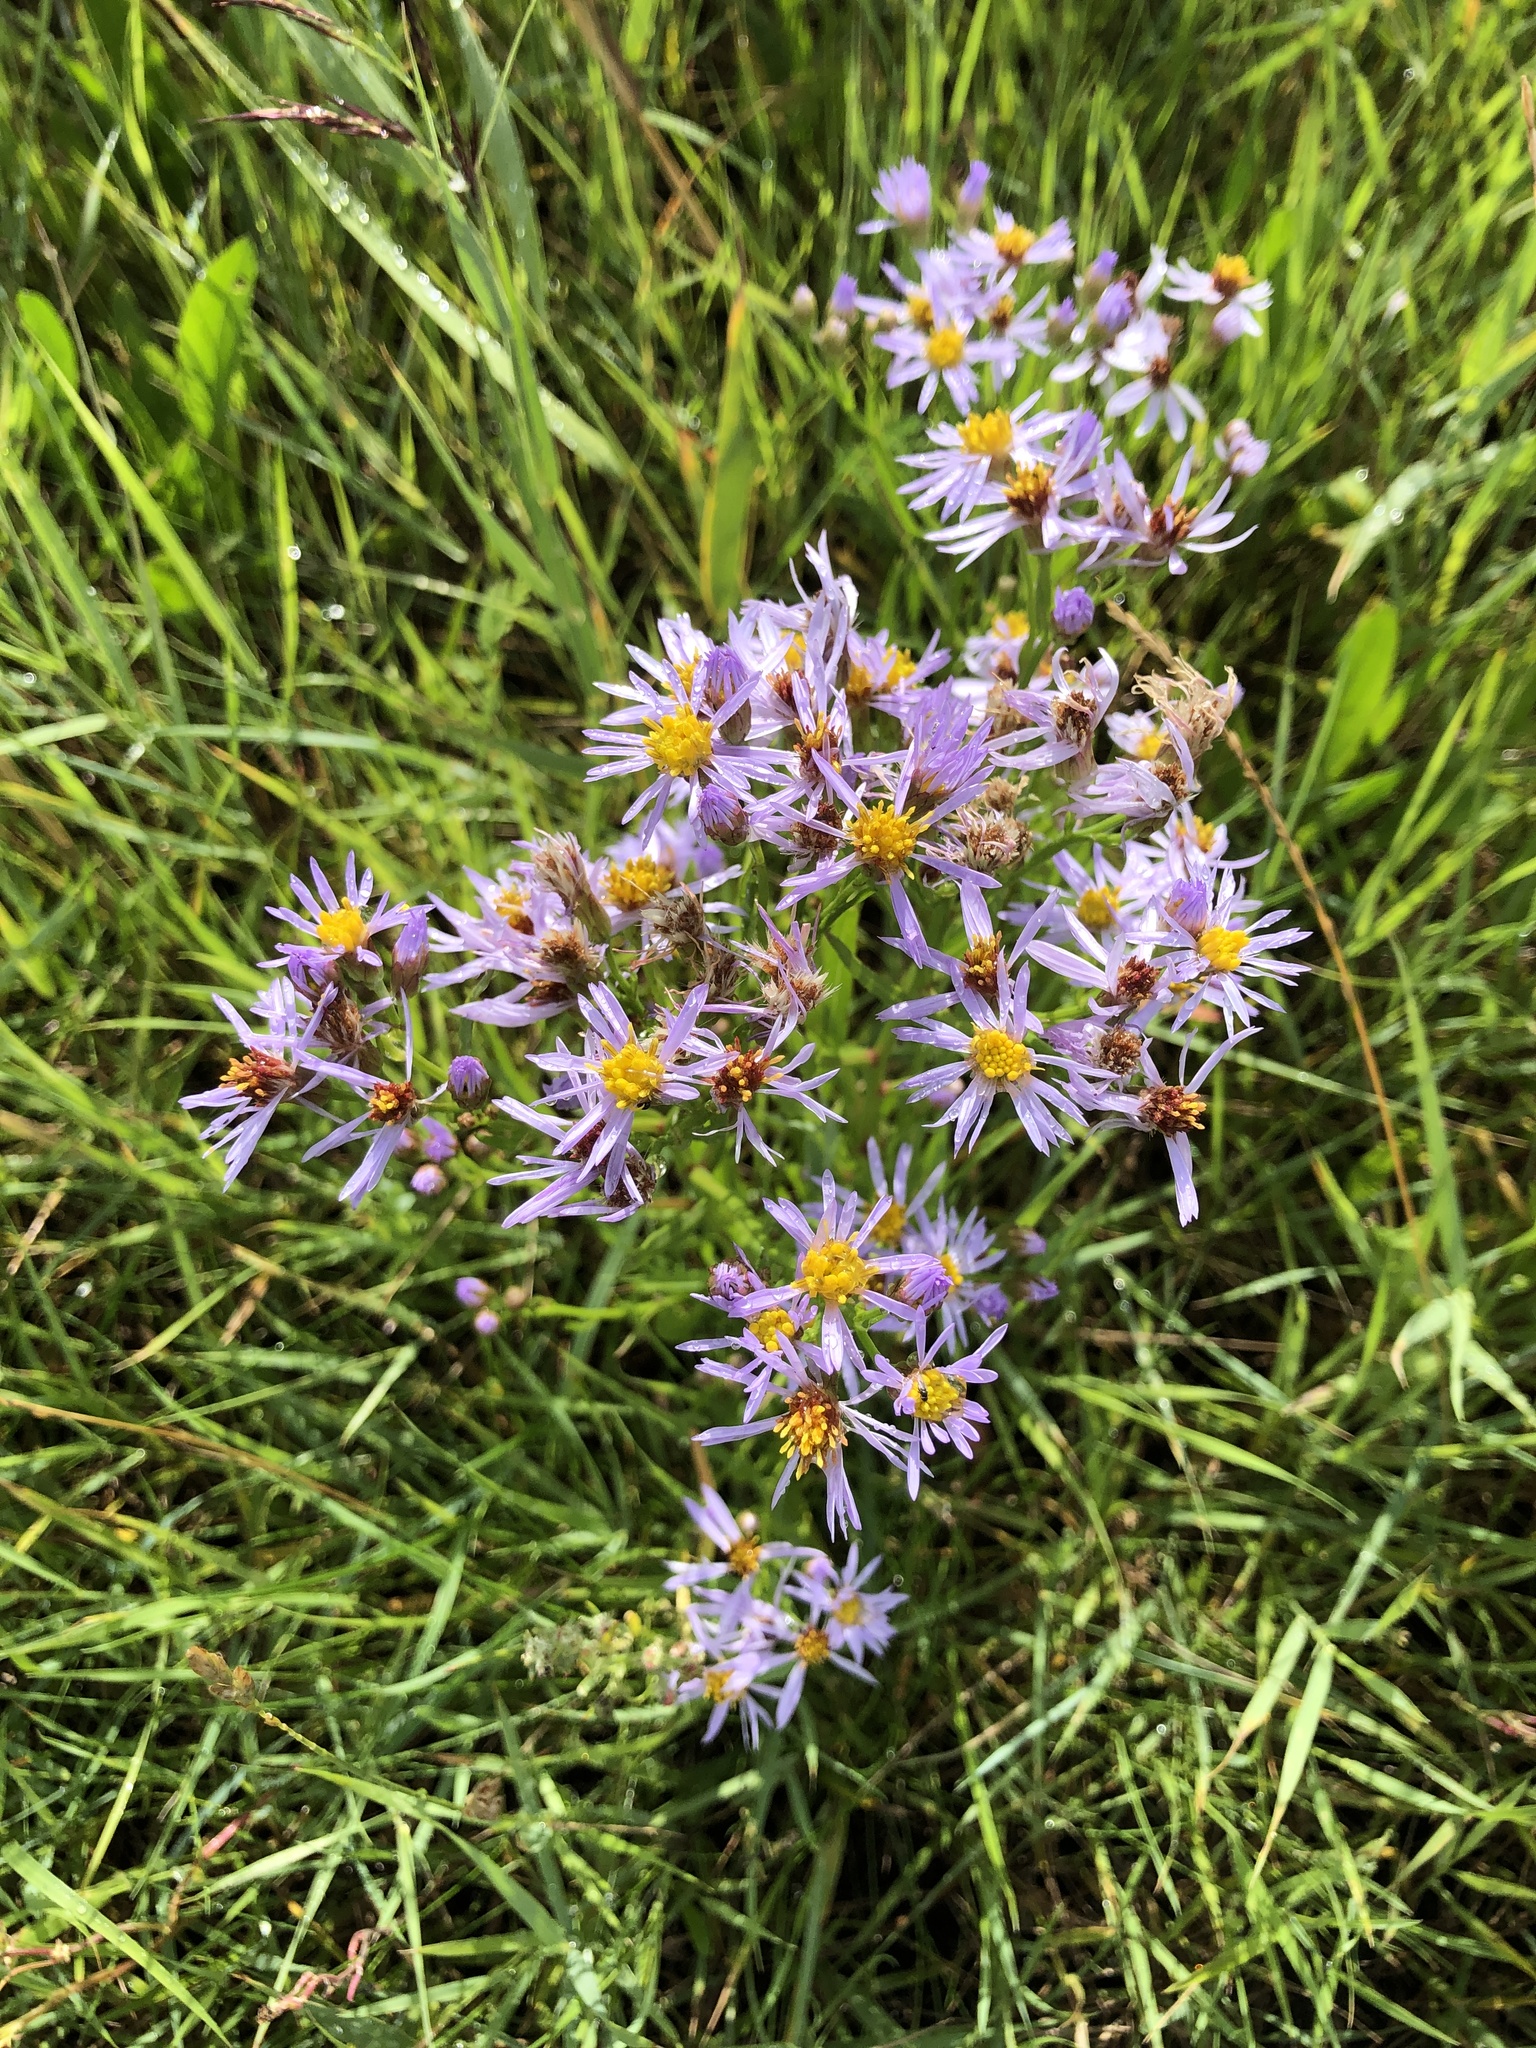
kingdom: Plantae
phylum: Tracheophyta
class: Magnoliopsida
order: Asterales
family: Asteraceae
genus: Tripolium
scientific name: Tripolium pannonicum
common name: Sea aster
